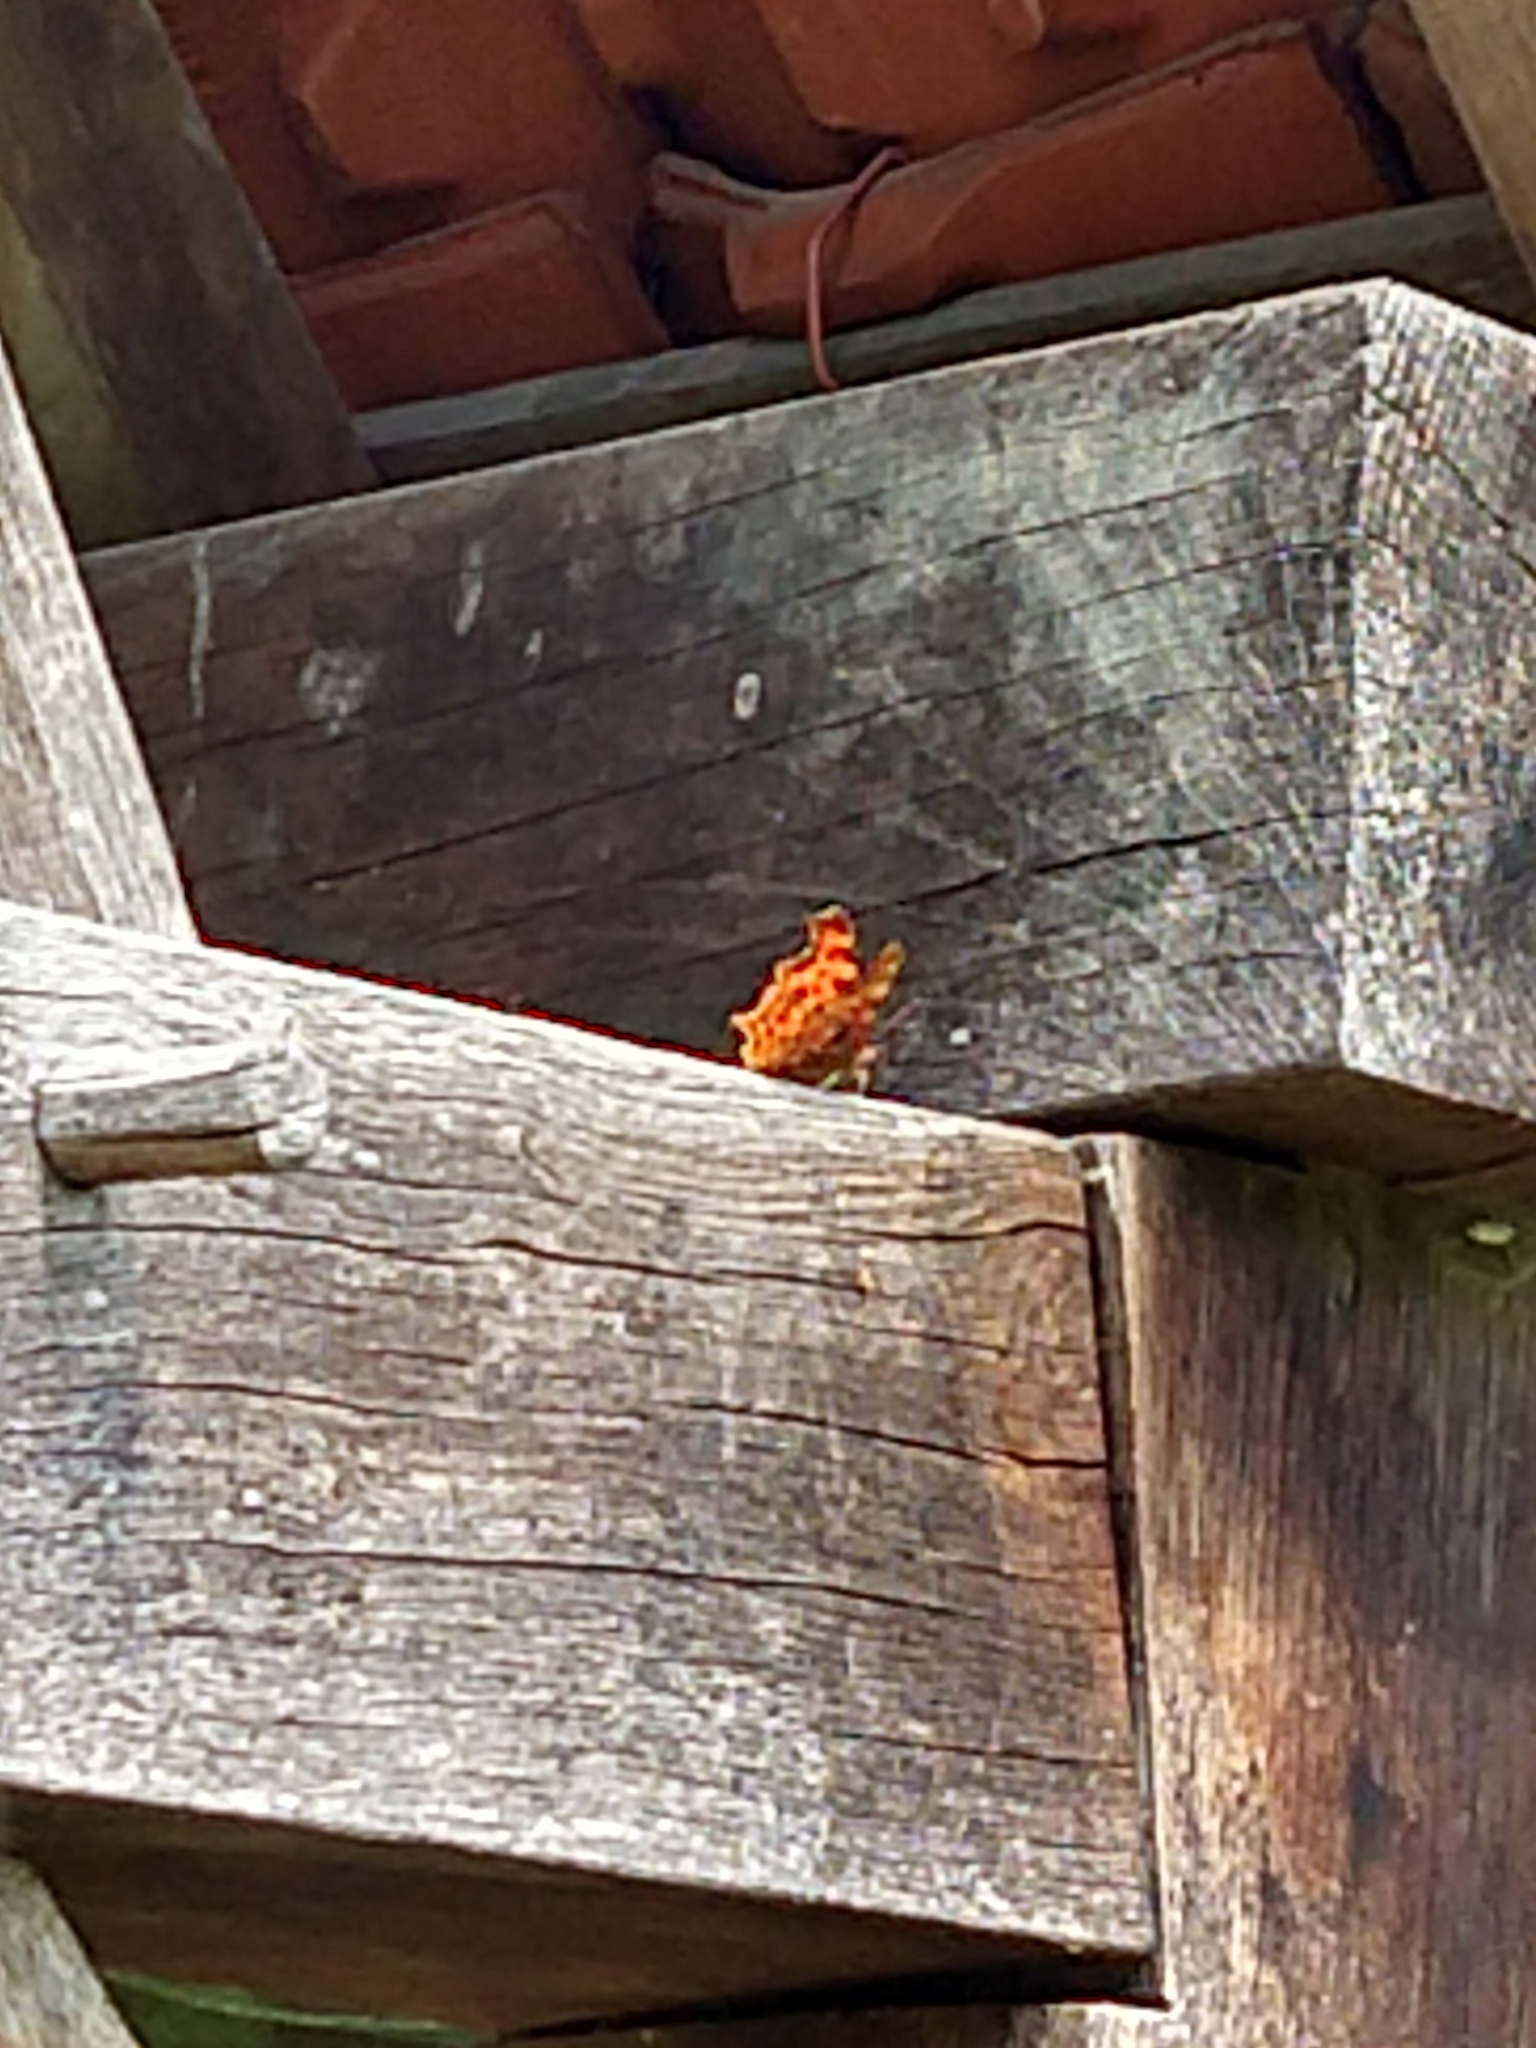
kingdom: Animalia
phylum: Arthropoda
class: Insecta
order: Lepidoptera
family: Nymphalidae
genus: Polygonia
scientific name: Polygonia c-album
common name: Comma
